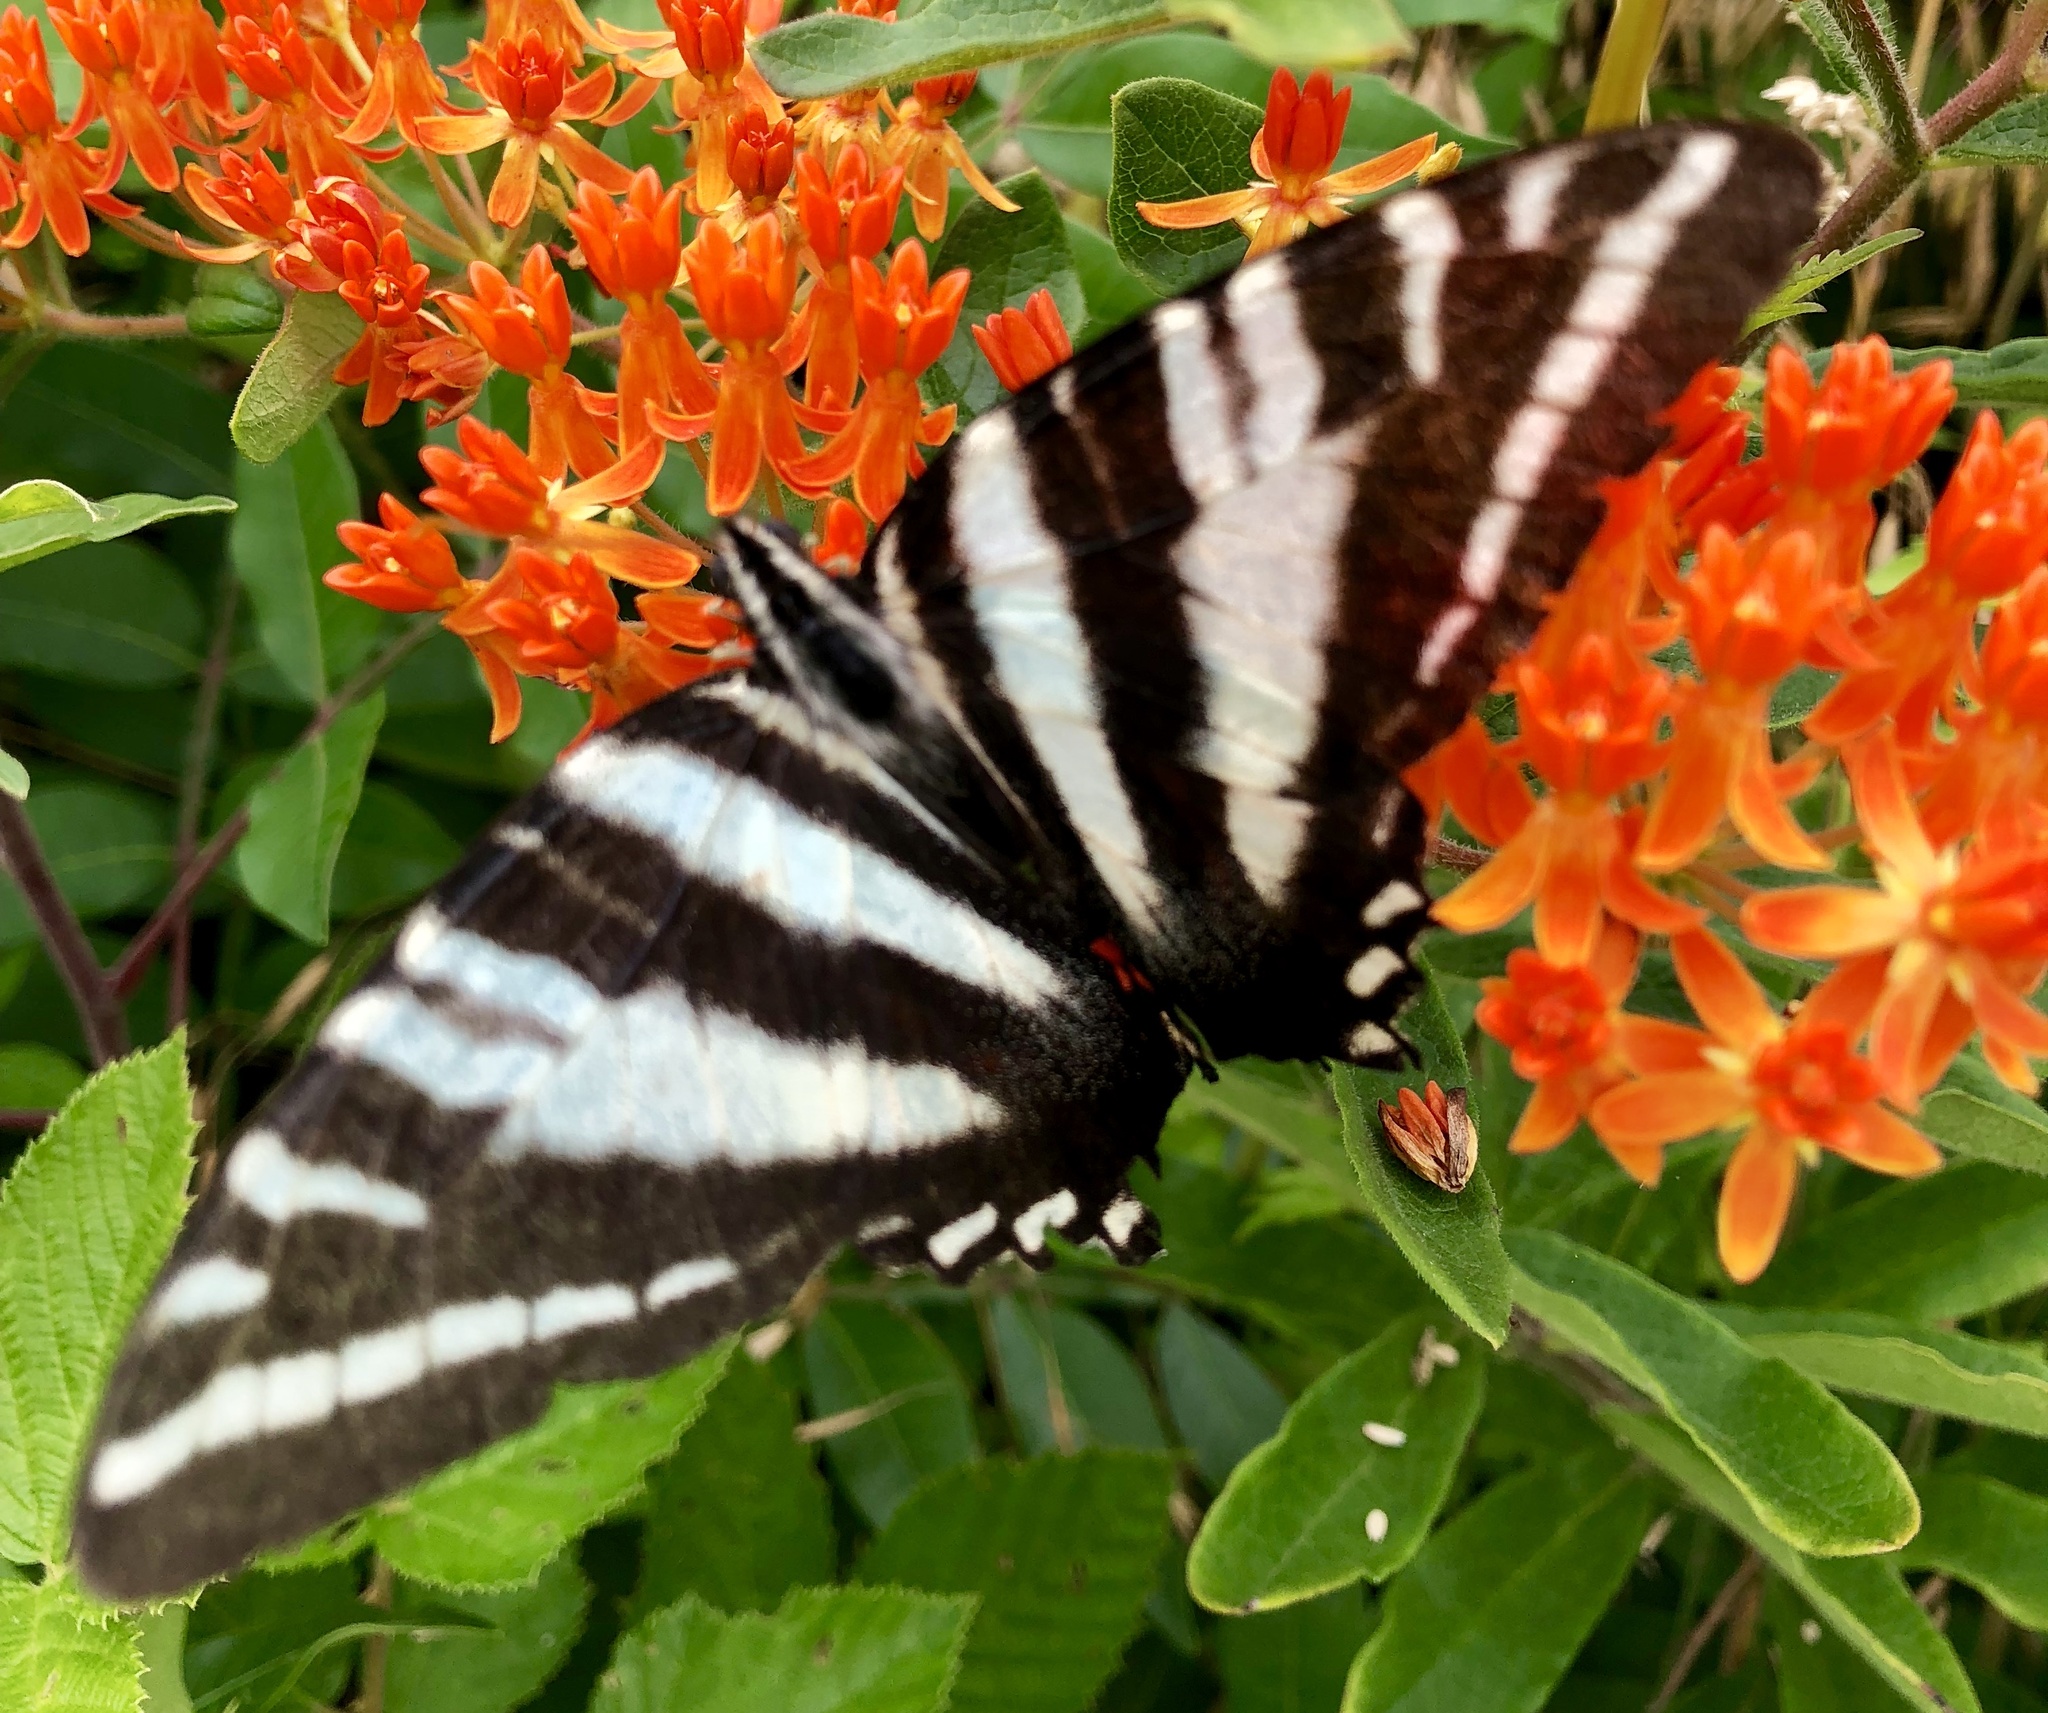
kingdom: Animalia
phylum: Arthropoda
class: Insecta
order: Lepidoptera
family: Papilionidae
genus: Protographium
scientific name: Protographium marcellus
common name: Zebra swallowtail
